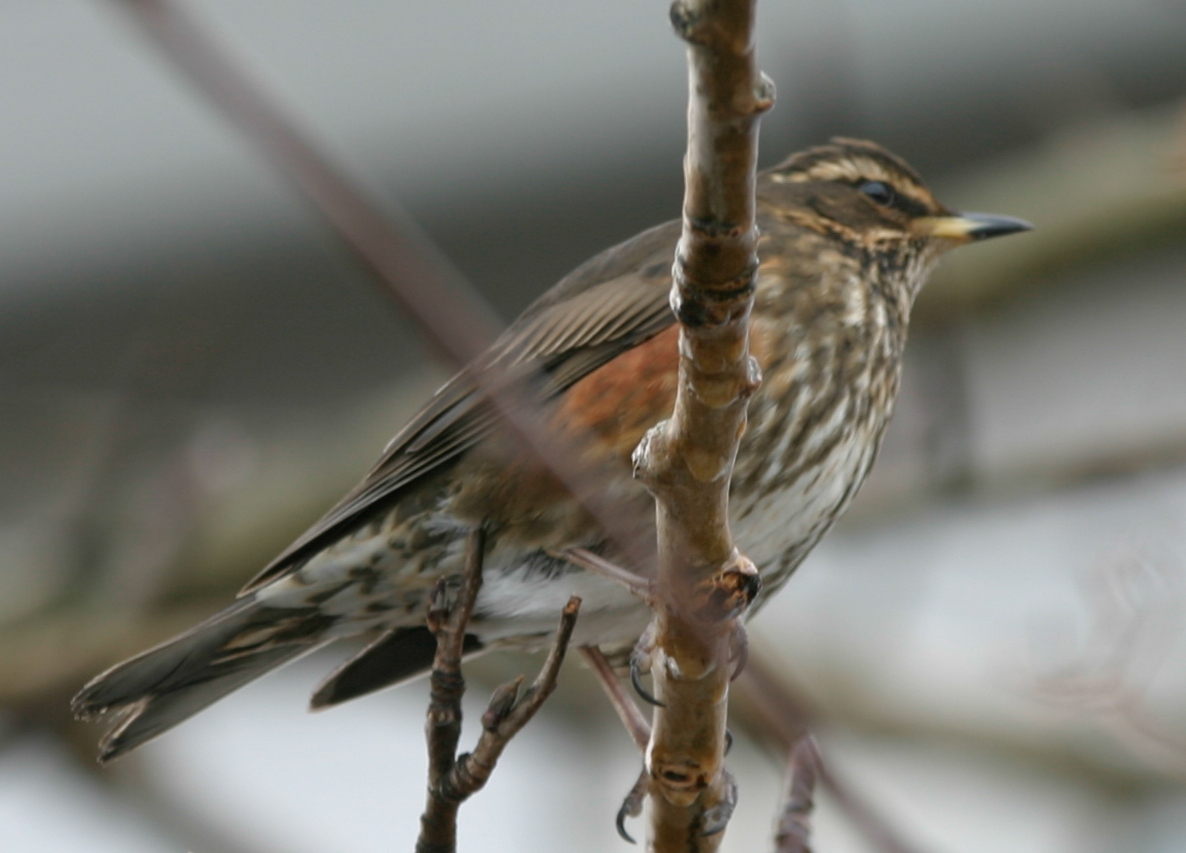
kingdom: Animalia
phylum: Chordata
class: Aves
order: Passeriformes
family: Turdidae
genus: Turdus
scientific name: Turdus iliacus
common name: Redwing
